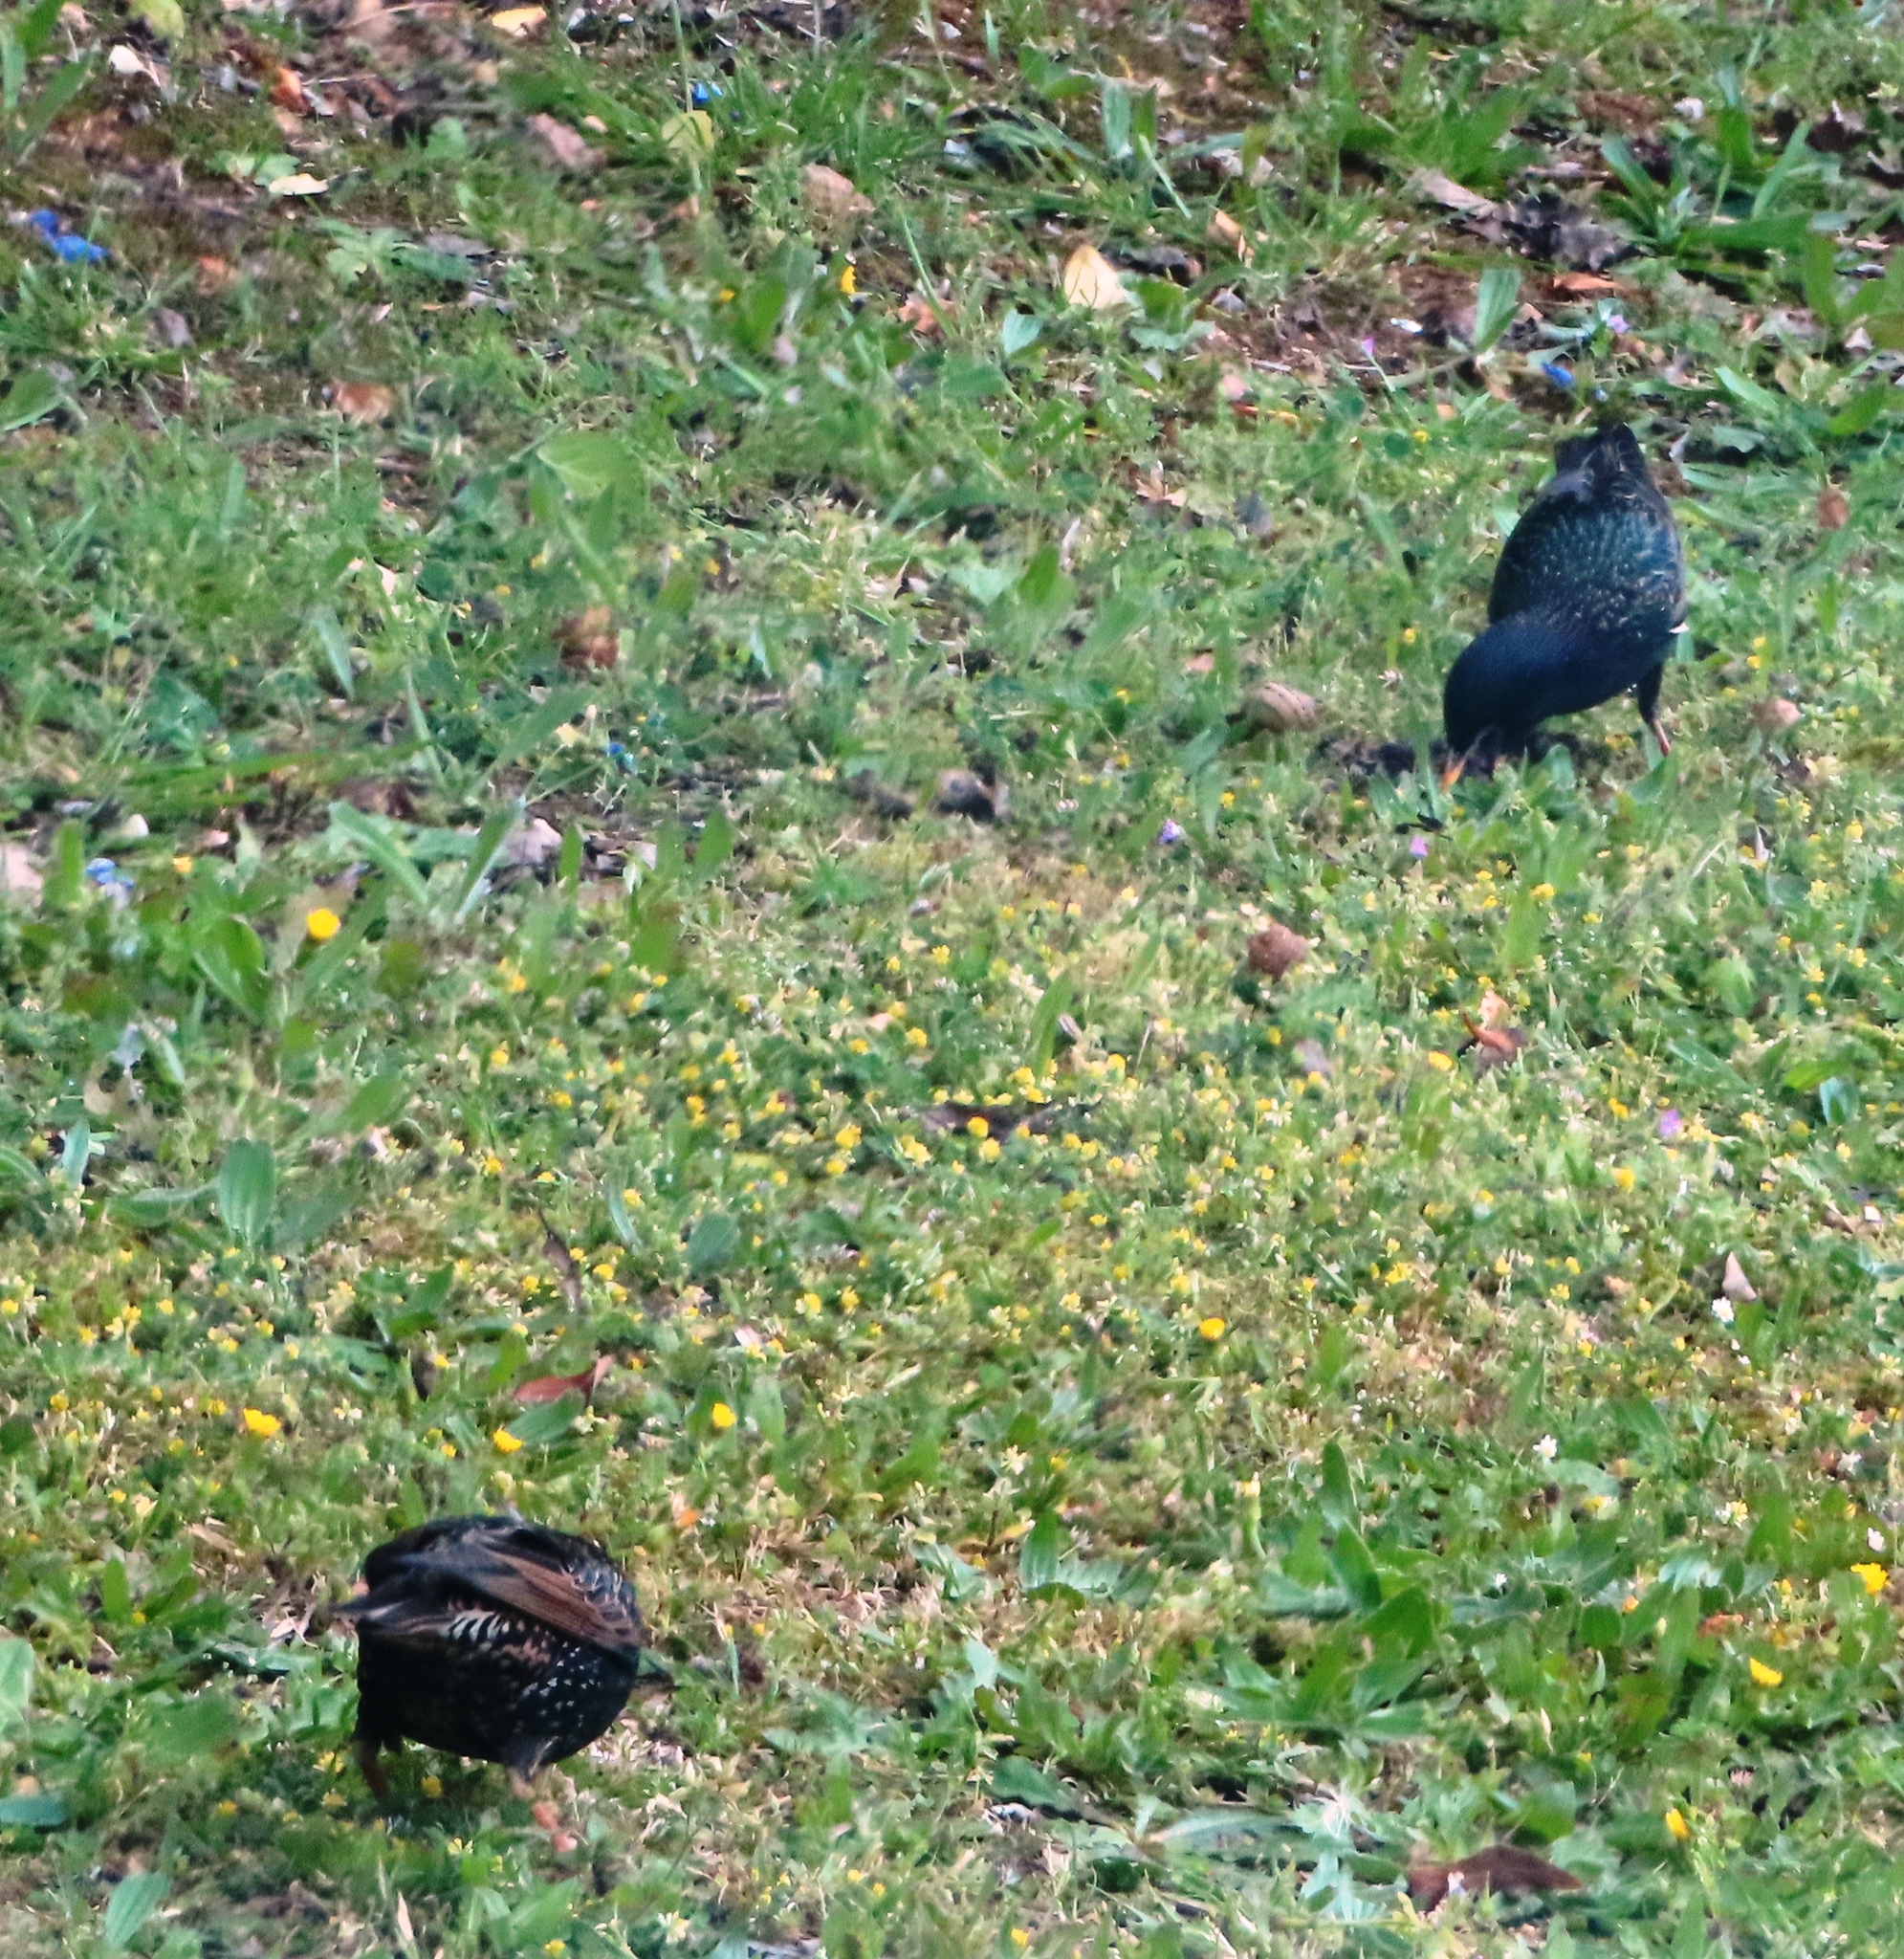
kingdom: Animalia
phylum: Chordata
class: Aves
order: Passeriformes
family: Sturnidae
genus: Sturnus
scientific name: Sturnus vulgaris
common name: Common starling
